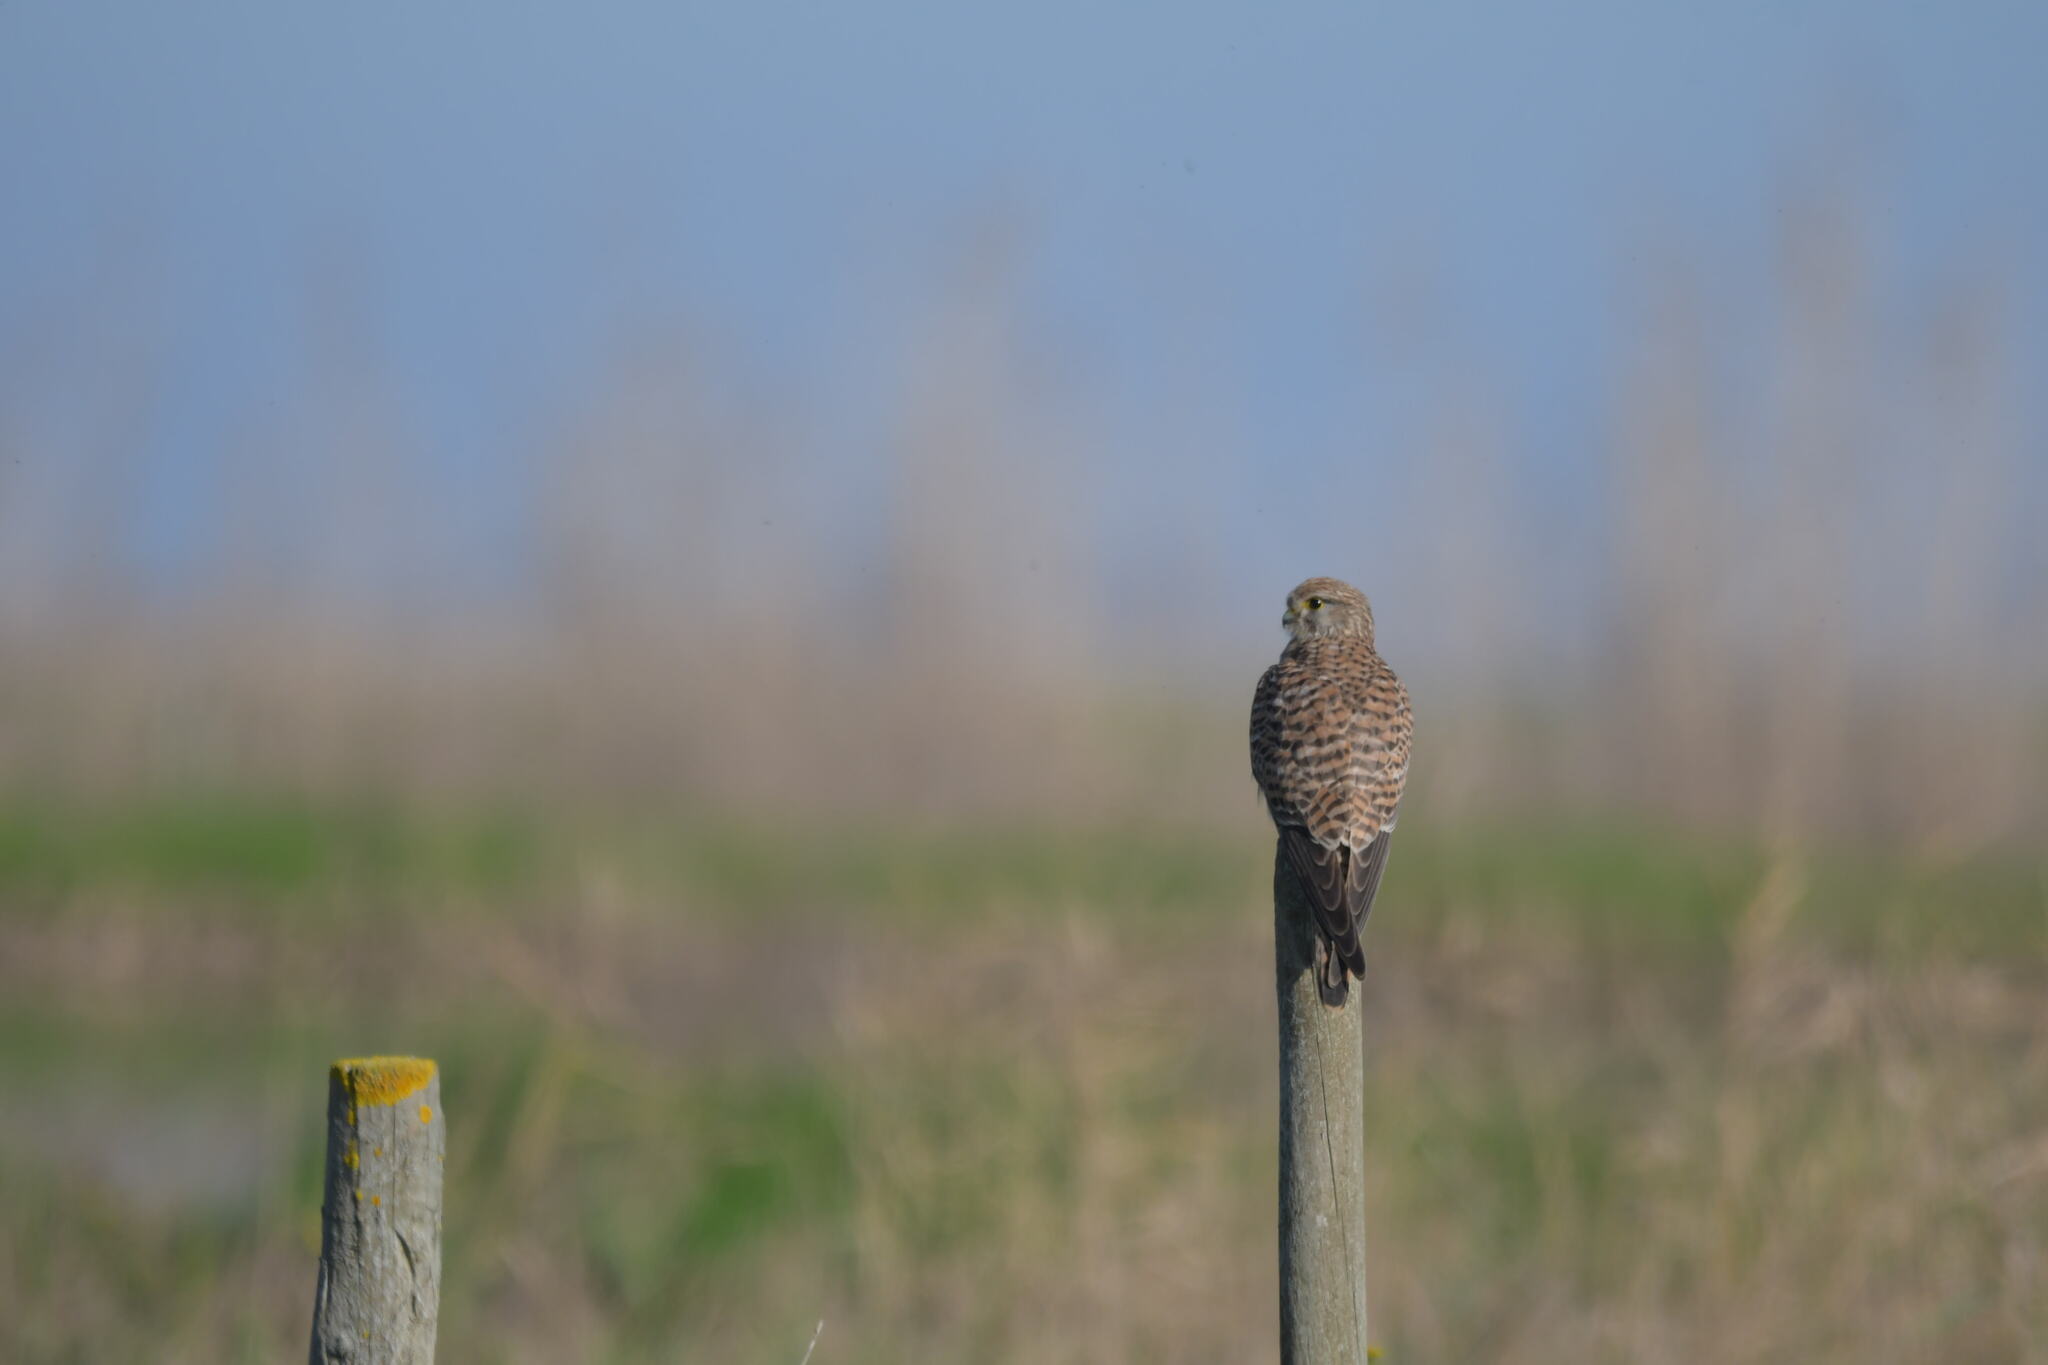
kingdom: Animalia
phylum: Chordata
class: Aves
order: Falconiformes
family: Falconidae
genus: Falco
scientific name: Falco tinnunculus
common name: Common kestrel
